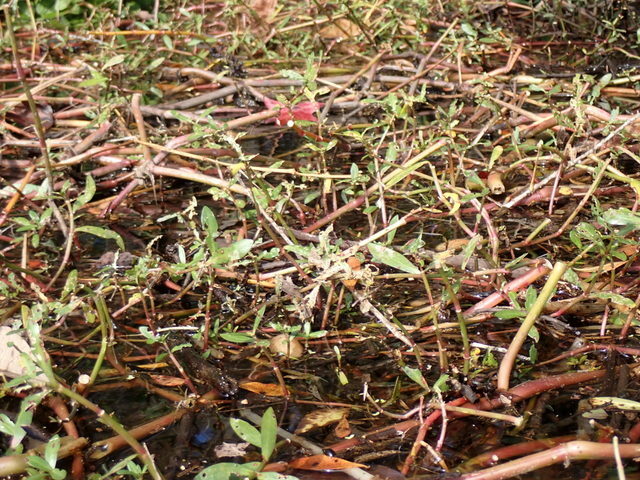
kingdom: Plantae
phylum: Tracheophyta
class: Magnoliopsida
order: Caryophyllales
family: Amaranthaceae
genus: Alternanthera
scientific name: Alternanthera philoxeroides
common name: Alligatorweed
